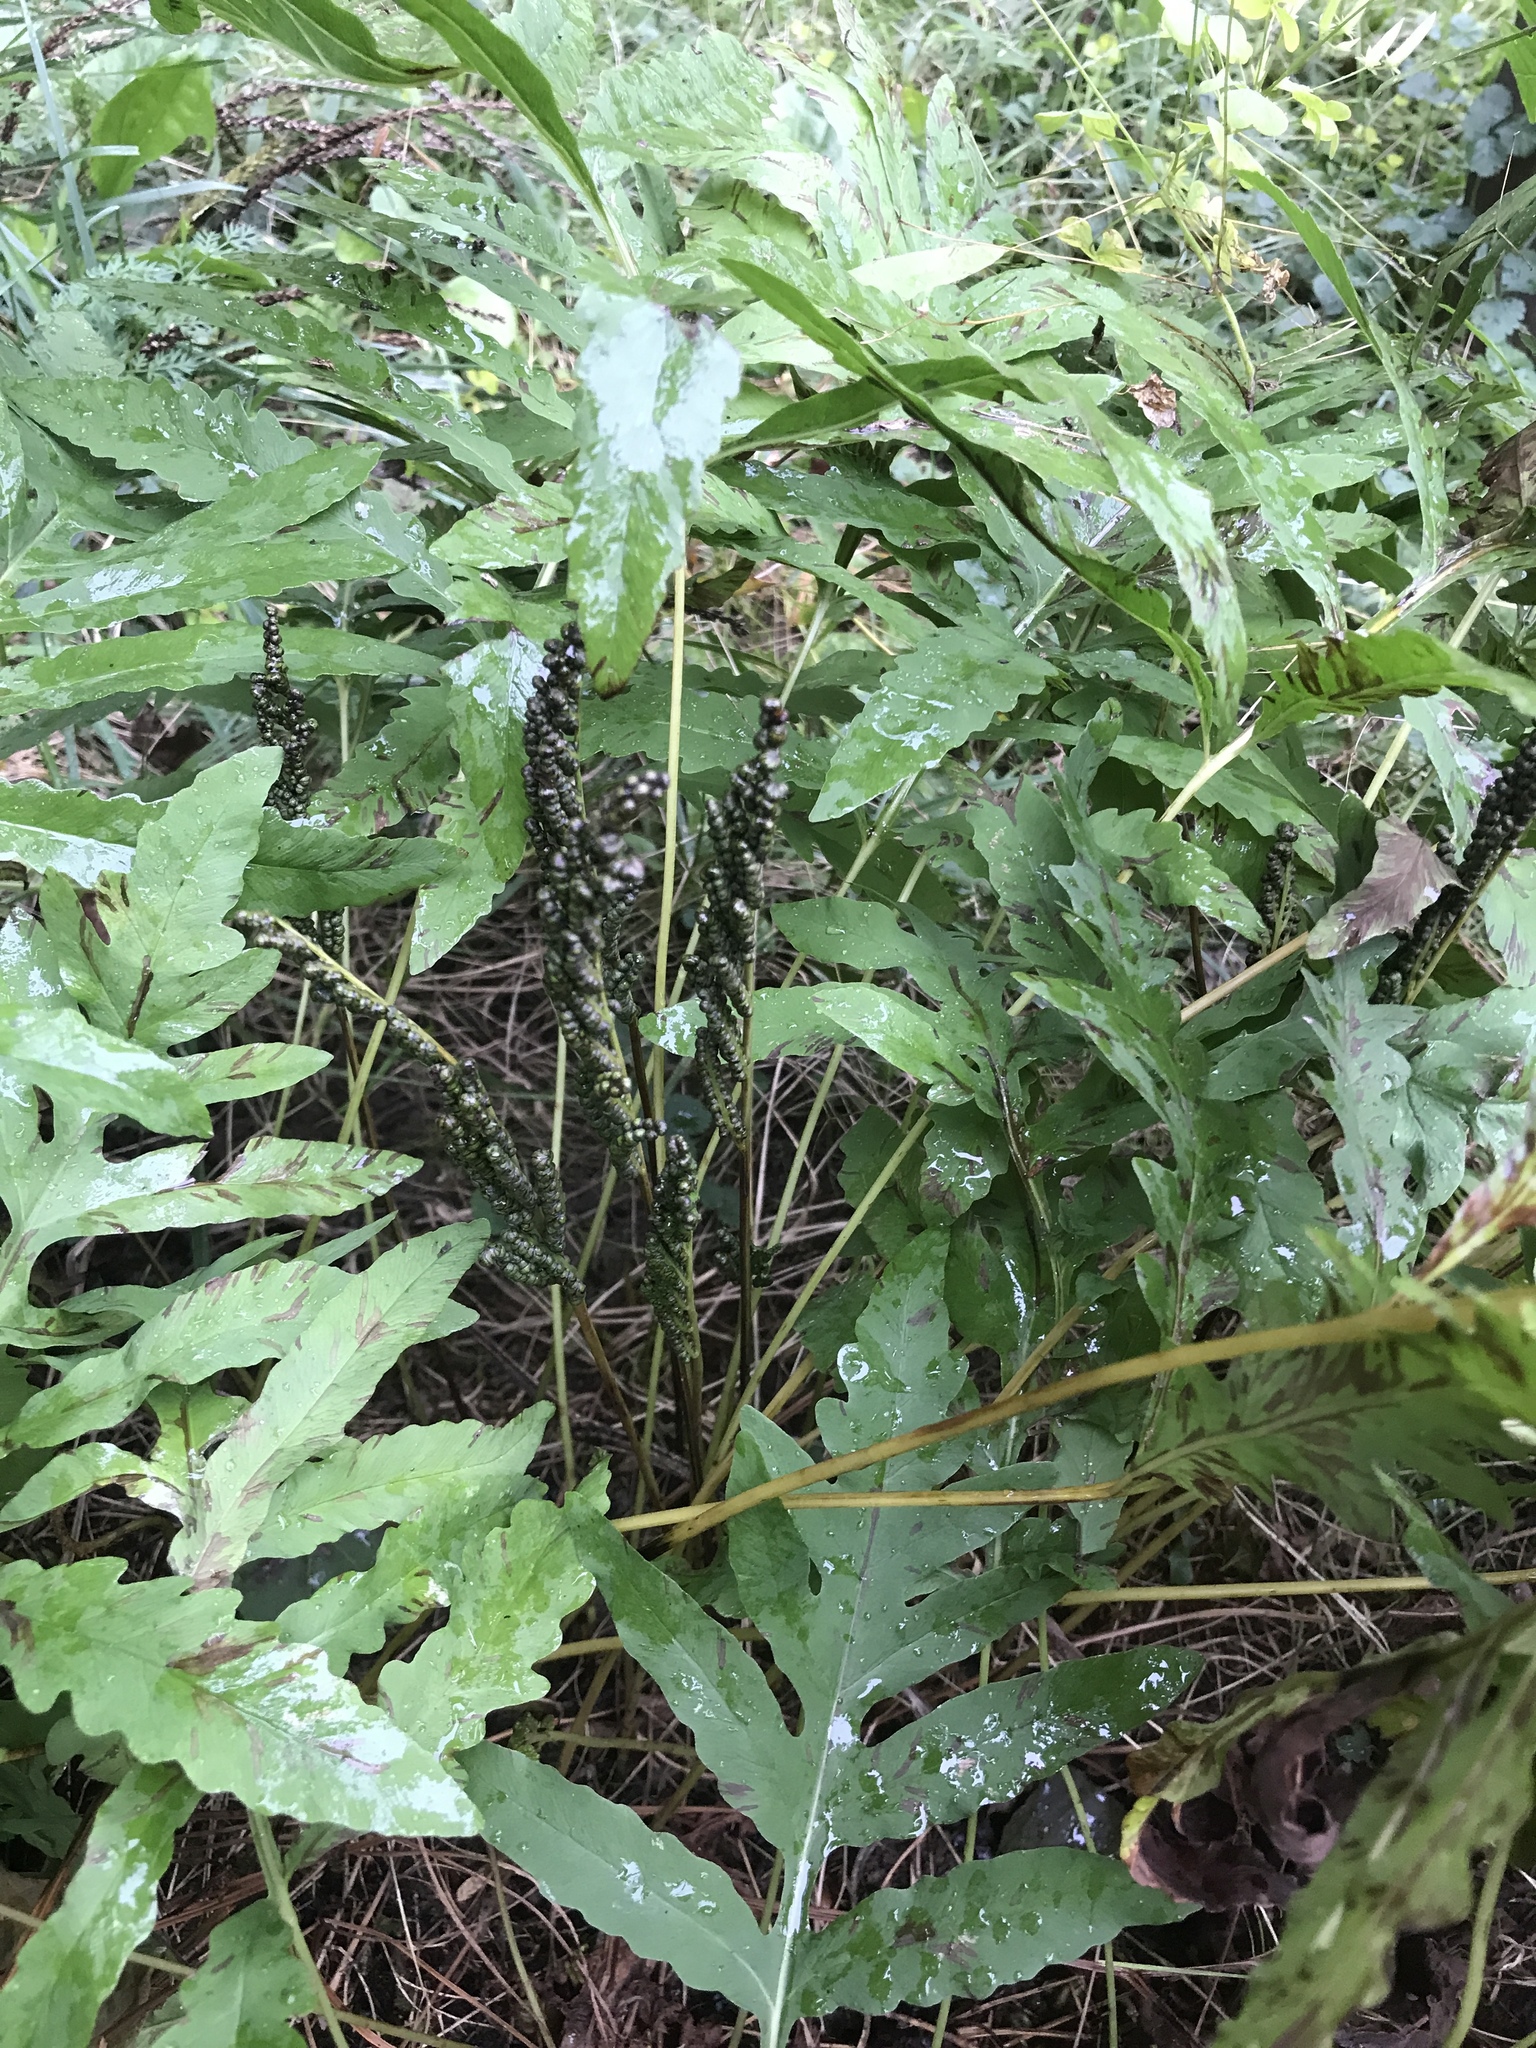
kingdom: Plantae
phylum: Tracheophyta
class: Polypodiopsida
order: Polypodiales
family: Onocleaceae
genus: Onoclea
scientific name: Onoclea sensibilis
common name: Sensitive fern
